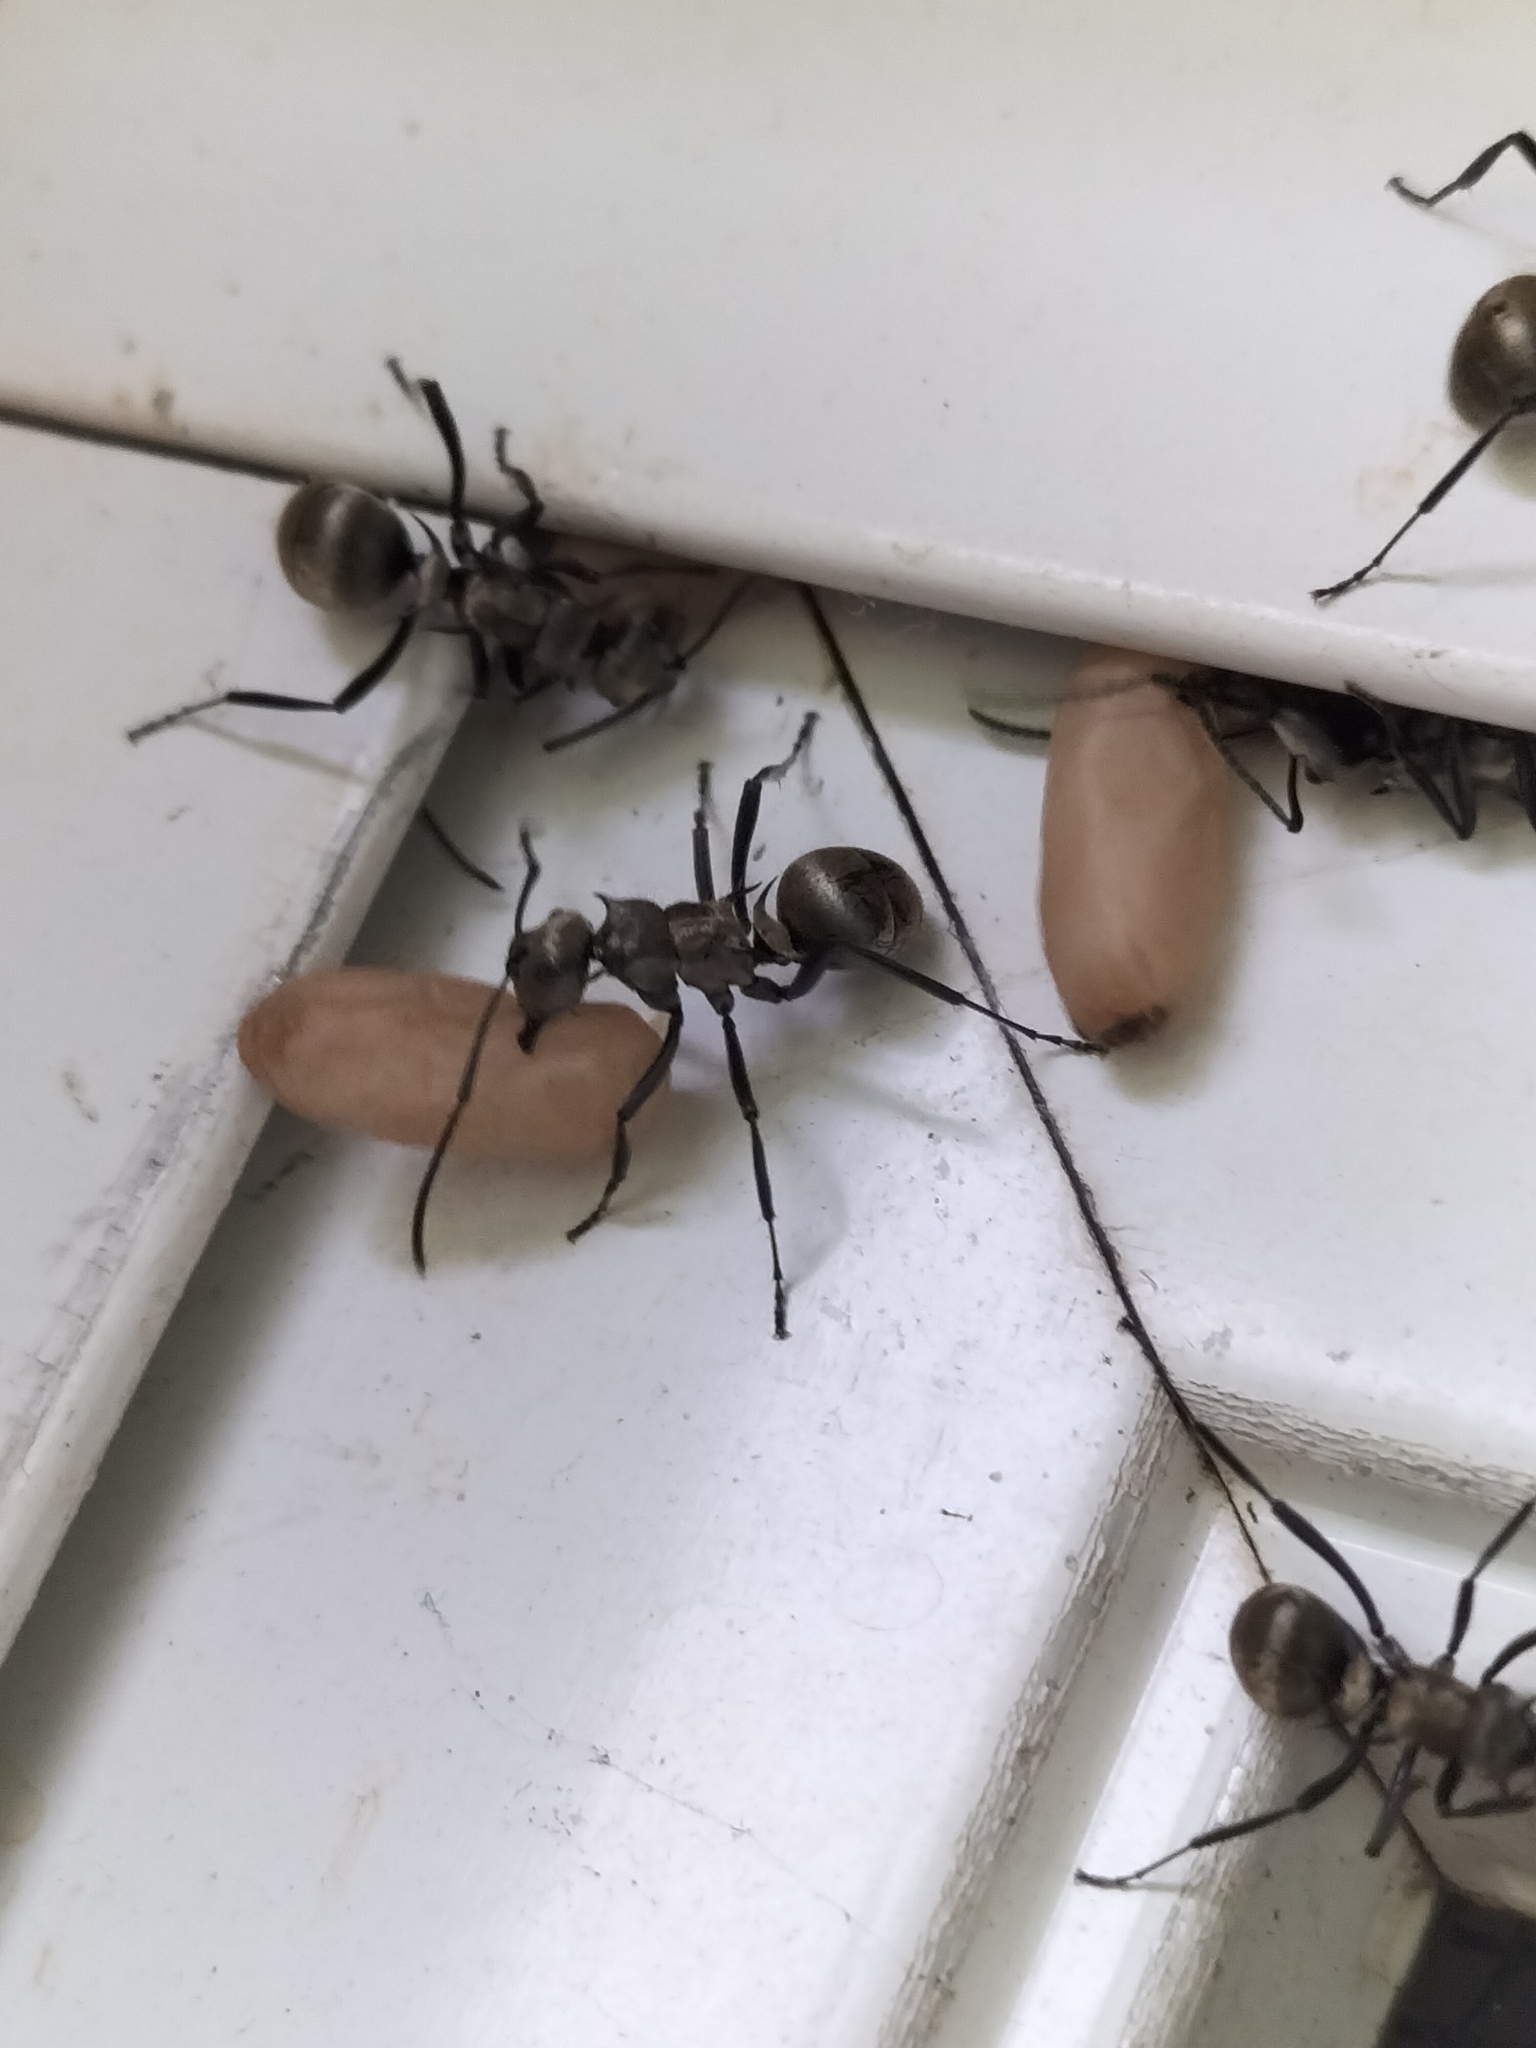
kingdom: Animalia
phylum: Arthropoda
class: Insecta
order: Hymenoptera
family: Formicidae
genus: Polyrhachis
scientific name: Polyrhachis cupreata
